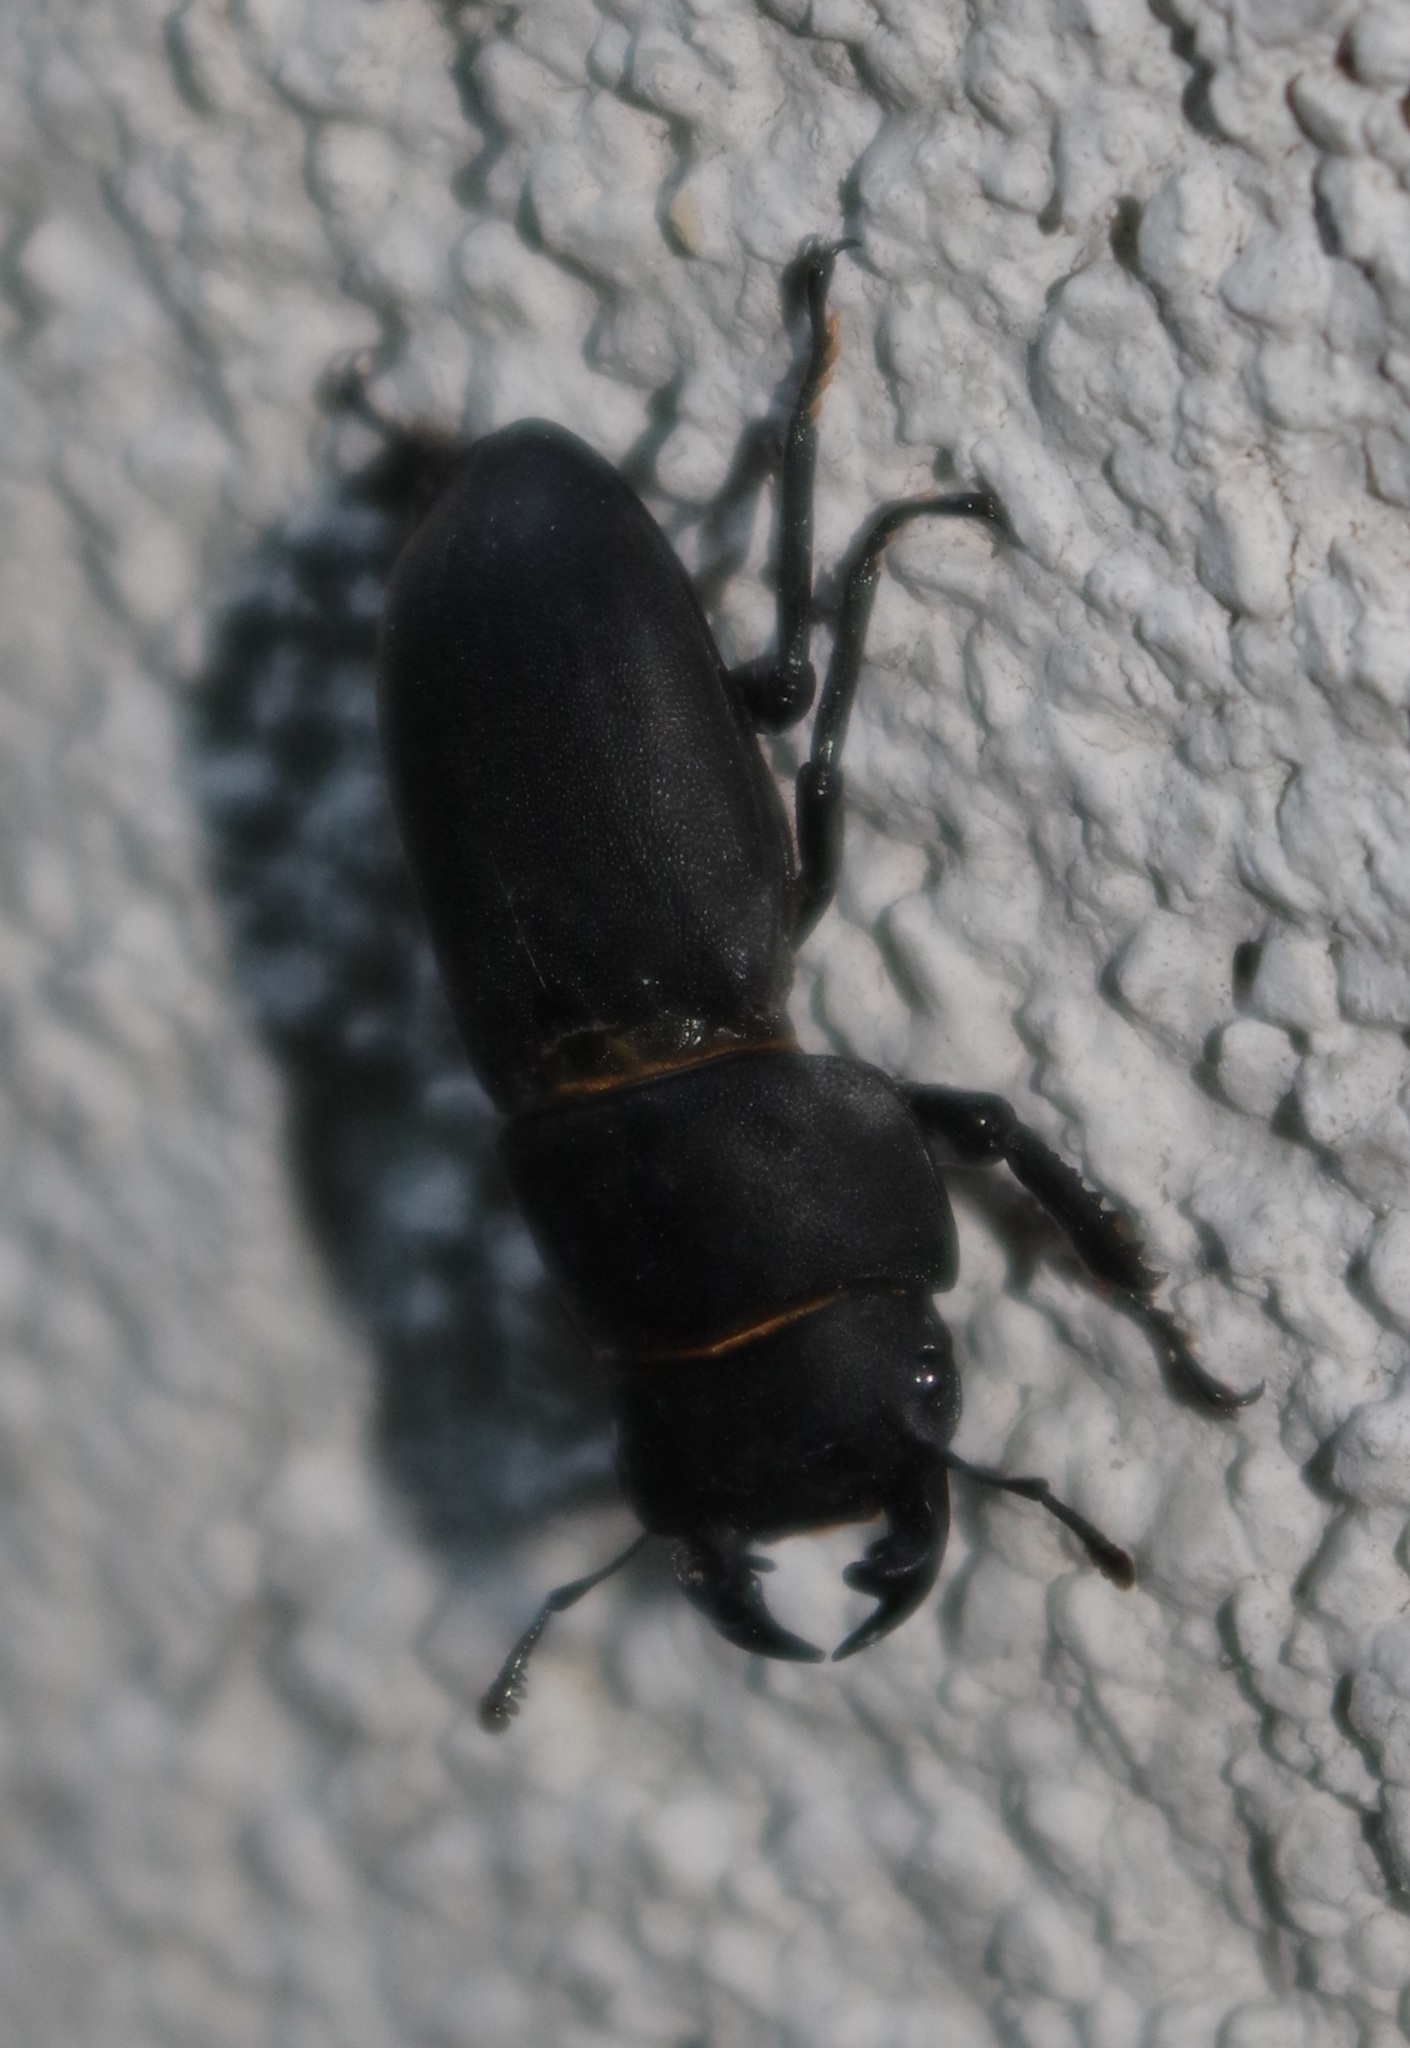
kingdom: Animalia
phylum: Arthropoda
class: Insecta
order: Coleoptera
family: Lucanidae
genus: Dorcus
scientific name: Dorcus parallelipipedus
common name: Lesser stag beetle
